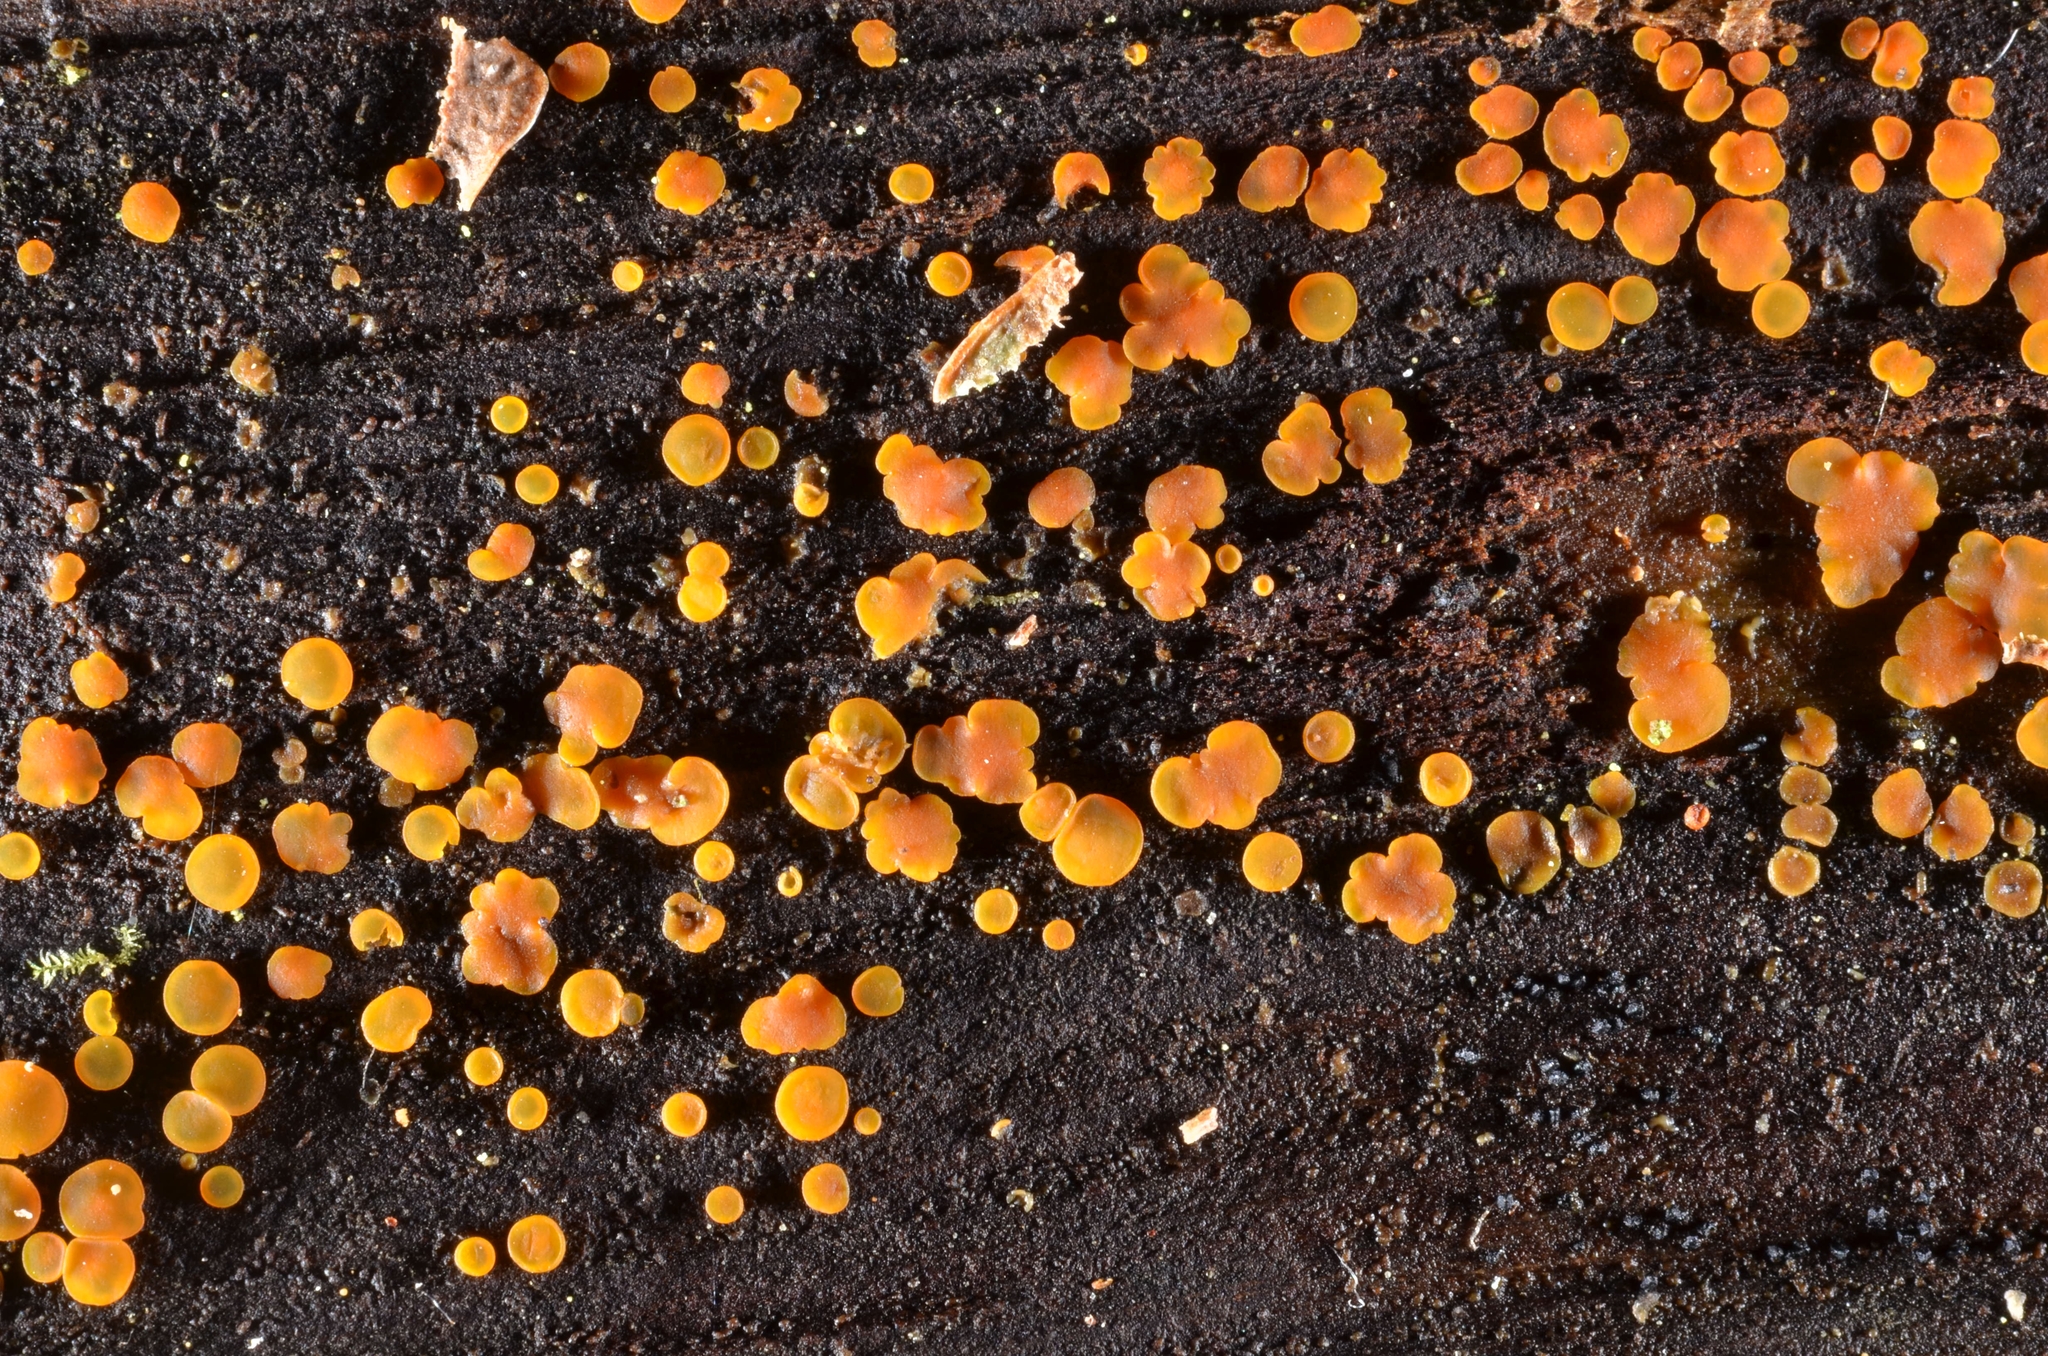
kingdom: Fungi
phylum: Ascomycota
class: Leotiomycetes
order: Helotiales
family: Pezizellaceae
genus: Calycina
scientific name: Calycina citrina
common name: Yellow fairy cups
